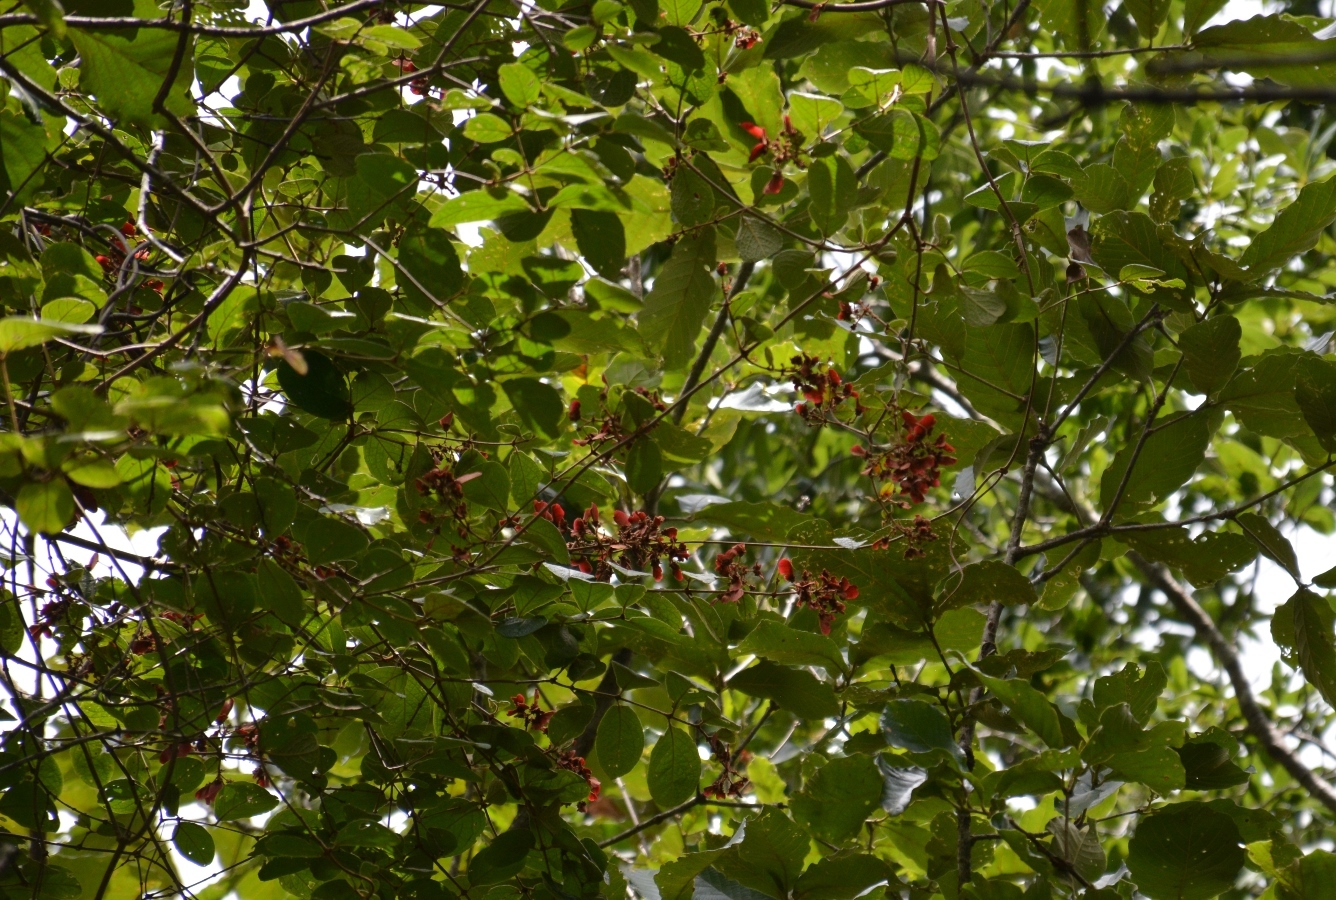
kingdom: Plantae
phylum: Tracheophyta
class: Magnoliopsida
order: Malpighiales
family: Malpighiaceae
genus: Heteropterys
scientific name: Heteropterys brachiata
